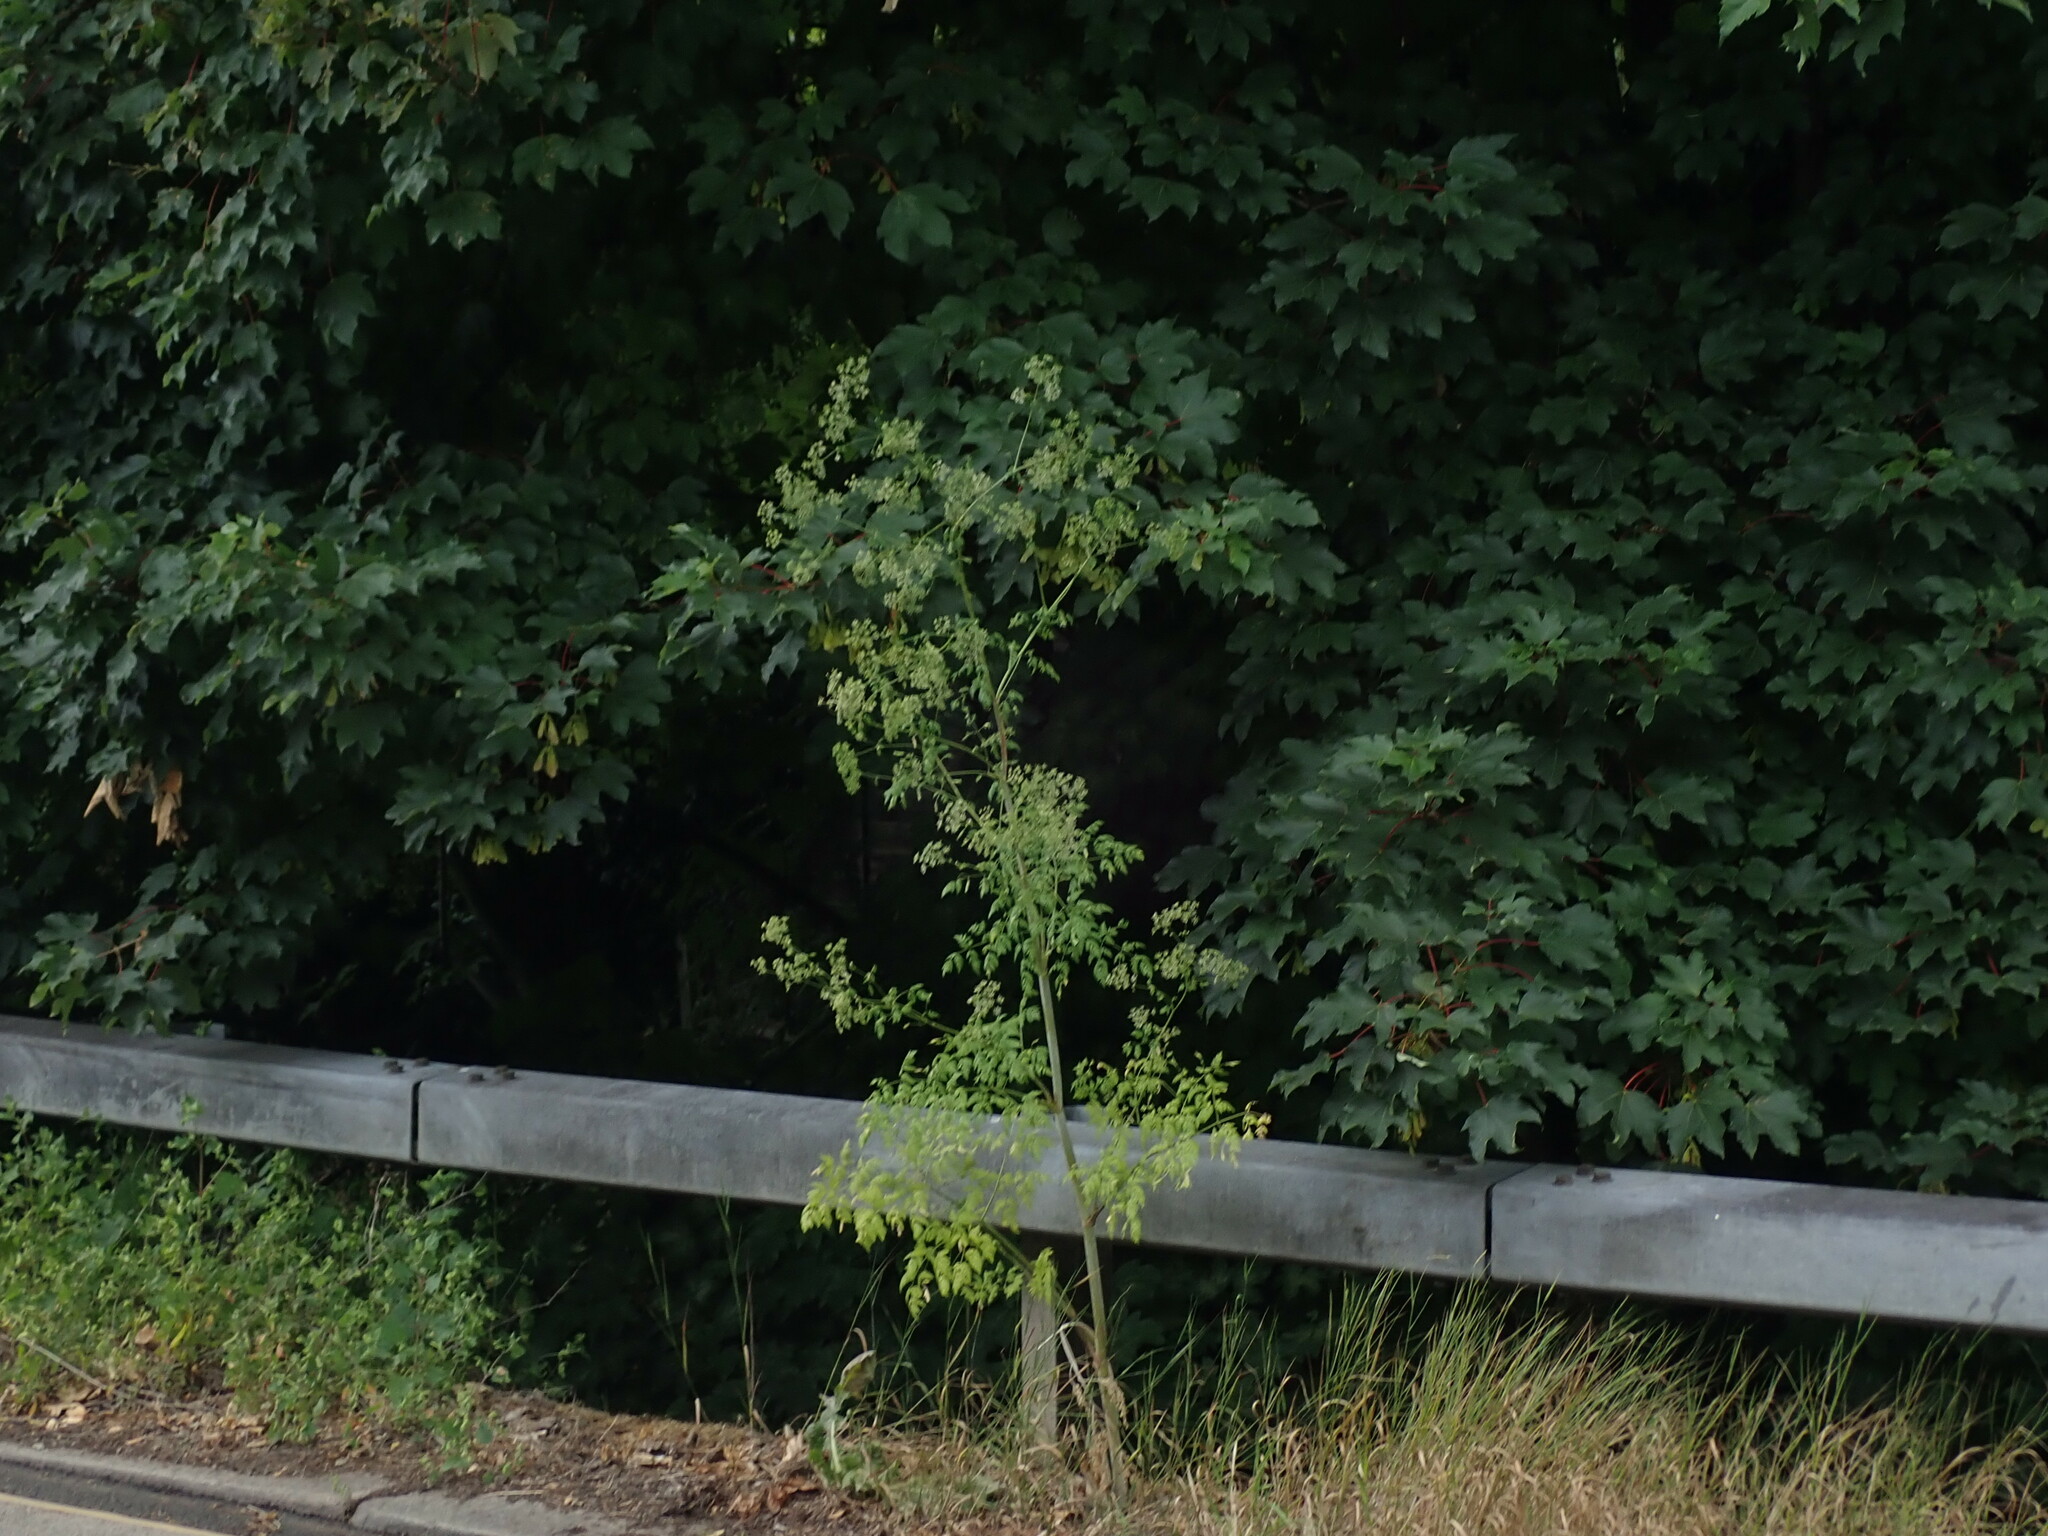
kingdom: Plantae
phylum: Tracheophyta
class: Magnoliopsida
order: Apiales
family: Apiaceae
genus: Conium
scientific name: Conium maculatum
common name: Hemlock
